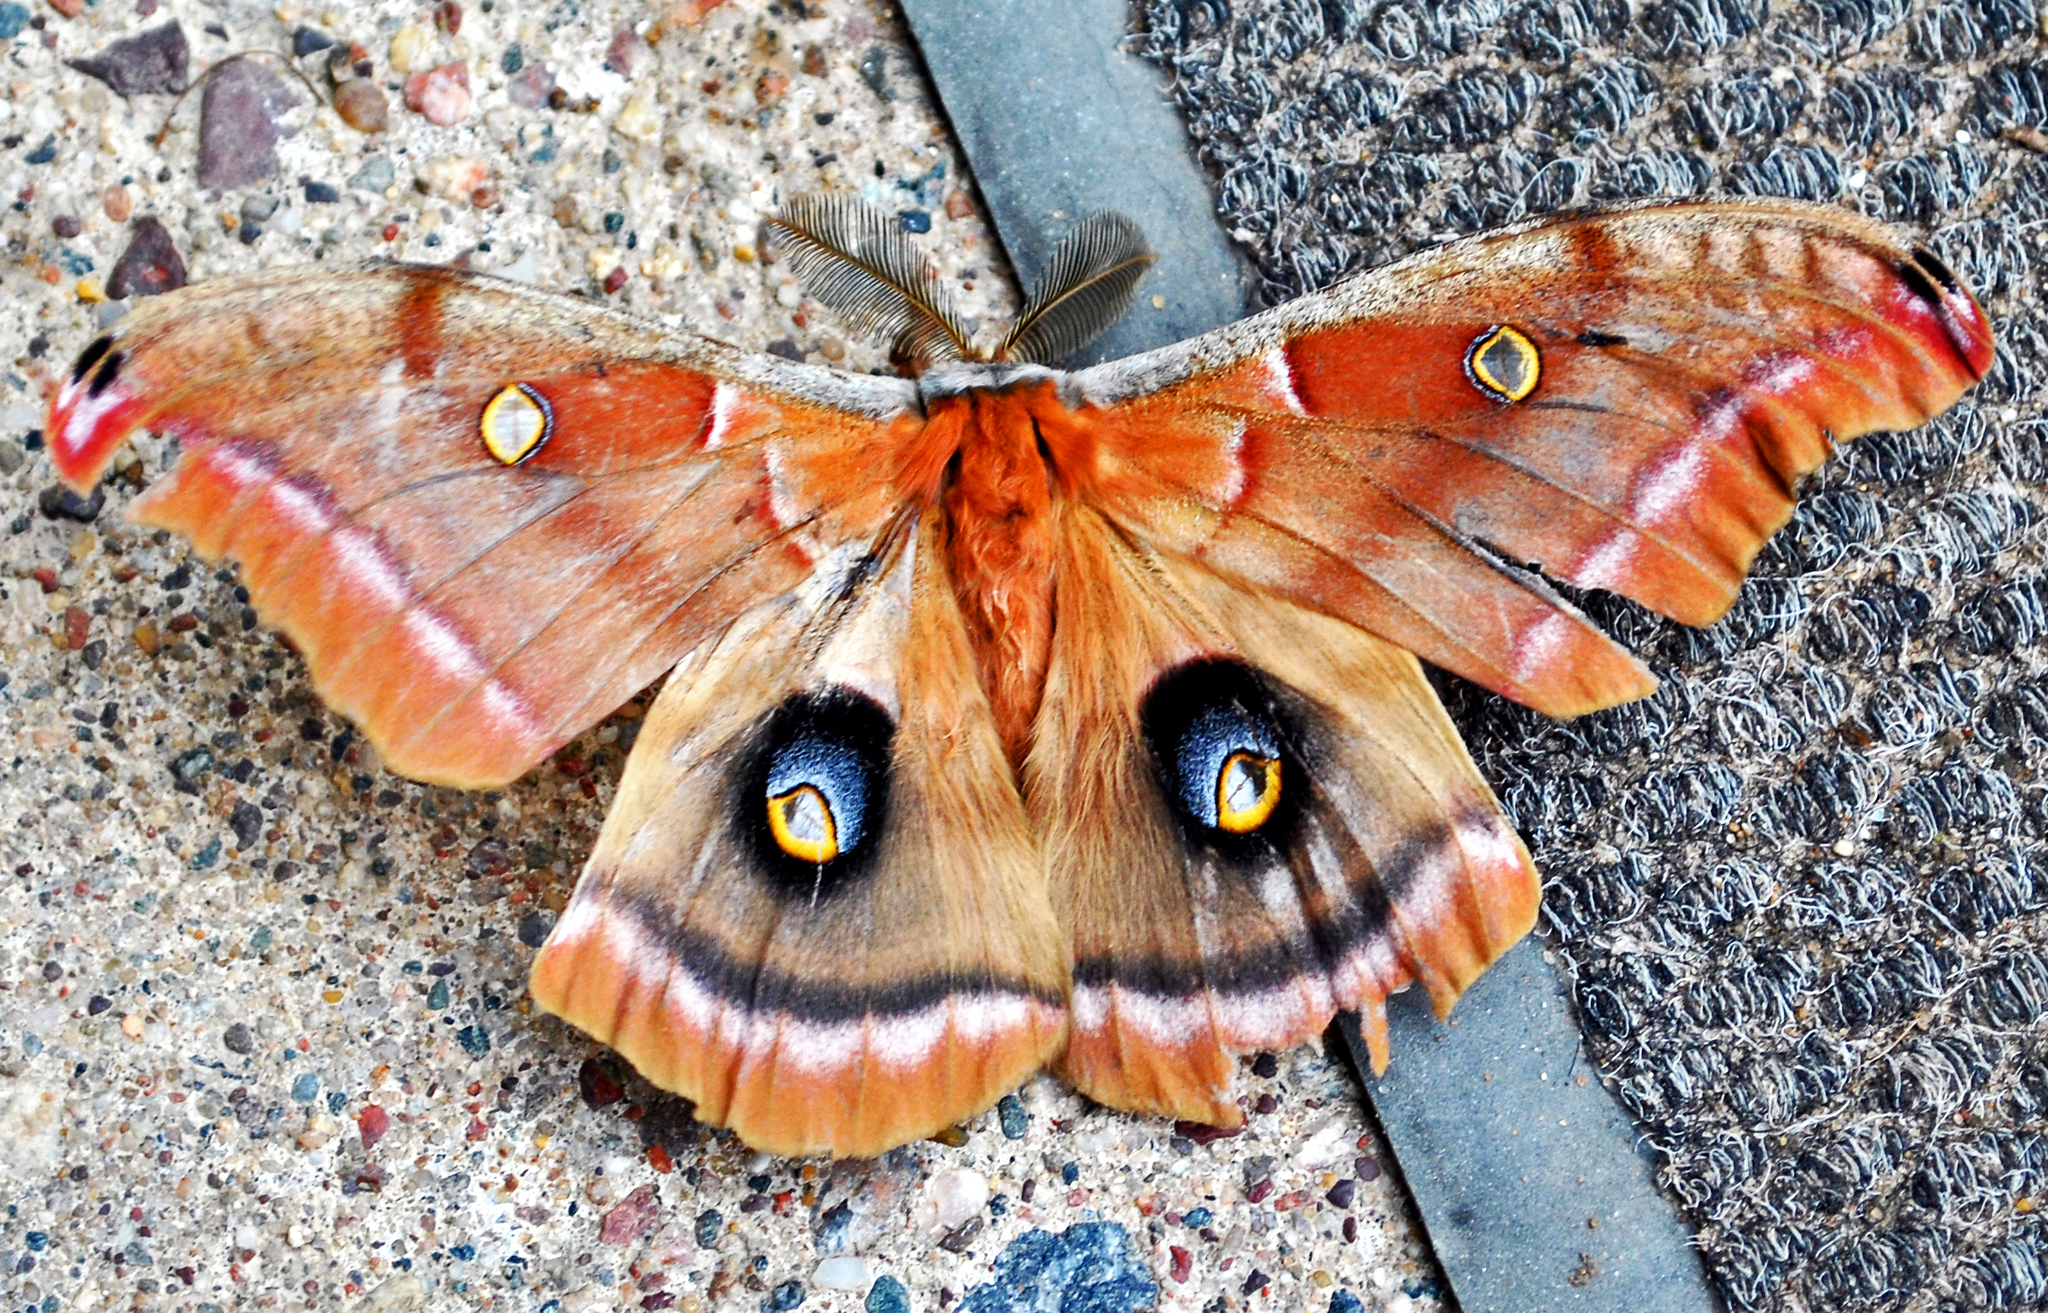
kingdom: Animalia
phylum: Arthropoda
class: Insecta
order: Lepidoptera
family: Saturniidae
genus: Antheraea
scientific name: Antheraea polyphemus
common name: Polyphemus moth
